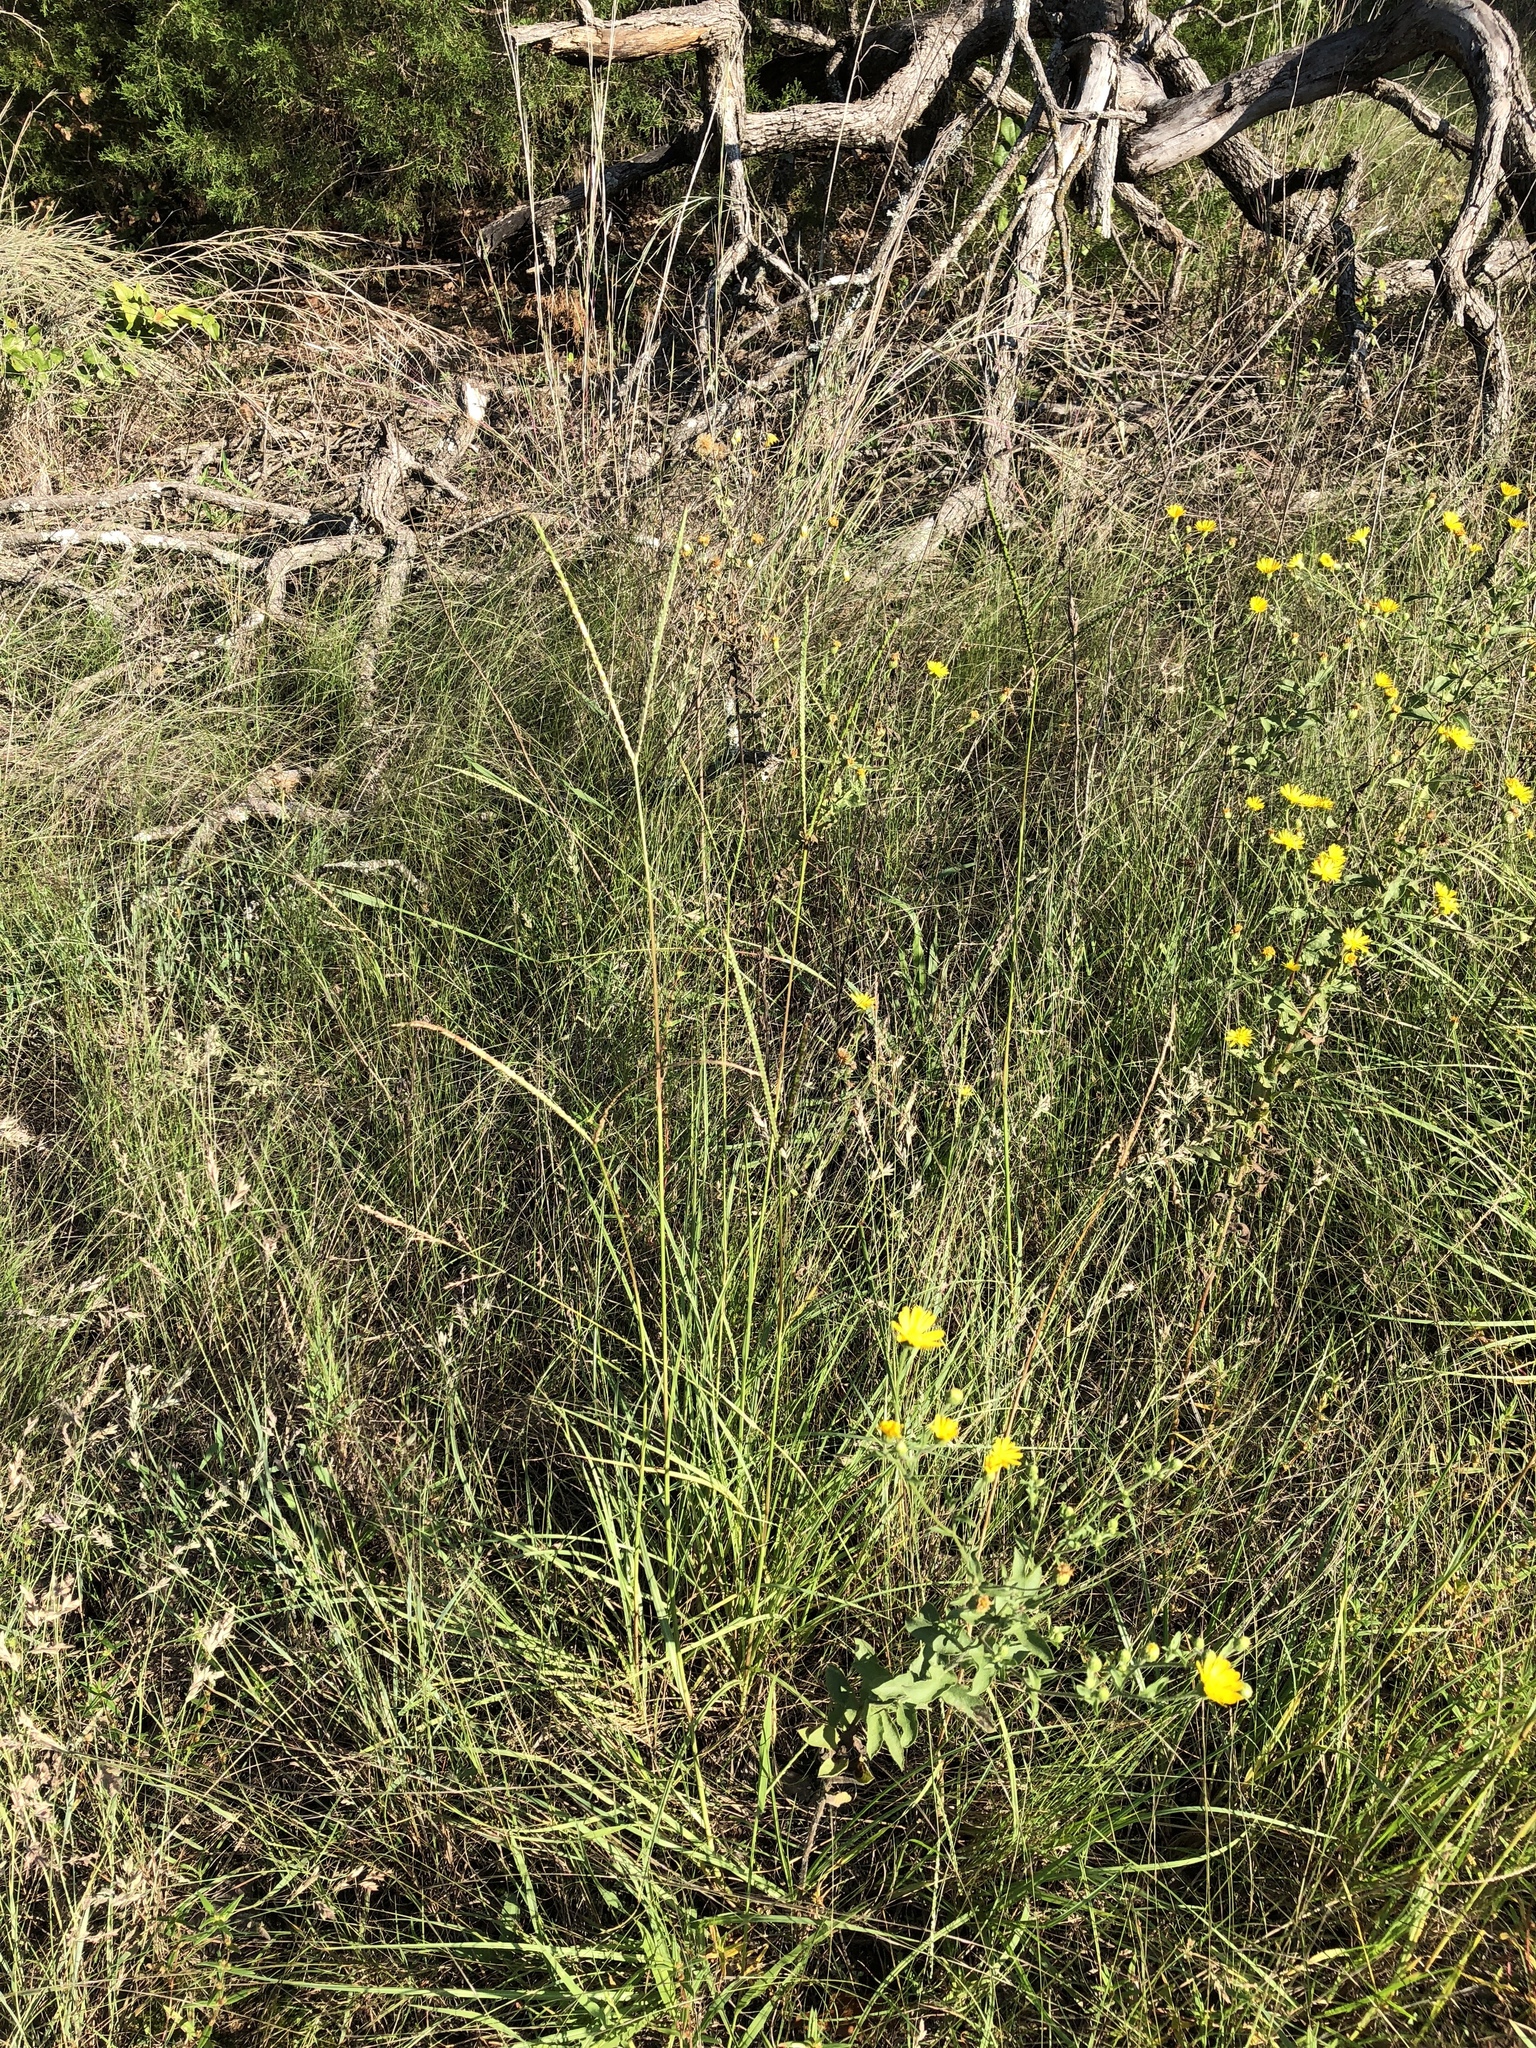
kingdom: Plantae
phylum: Tracheophyta
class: Liliopsida
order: Poales
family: Poaceae
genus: Paspalum
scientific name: Paspalum notatum
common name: Bahiagrass
